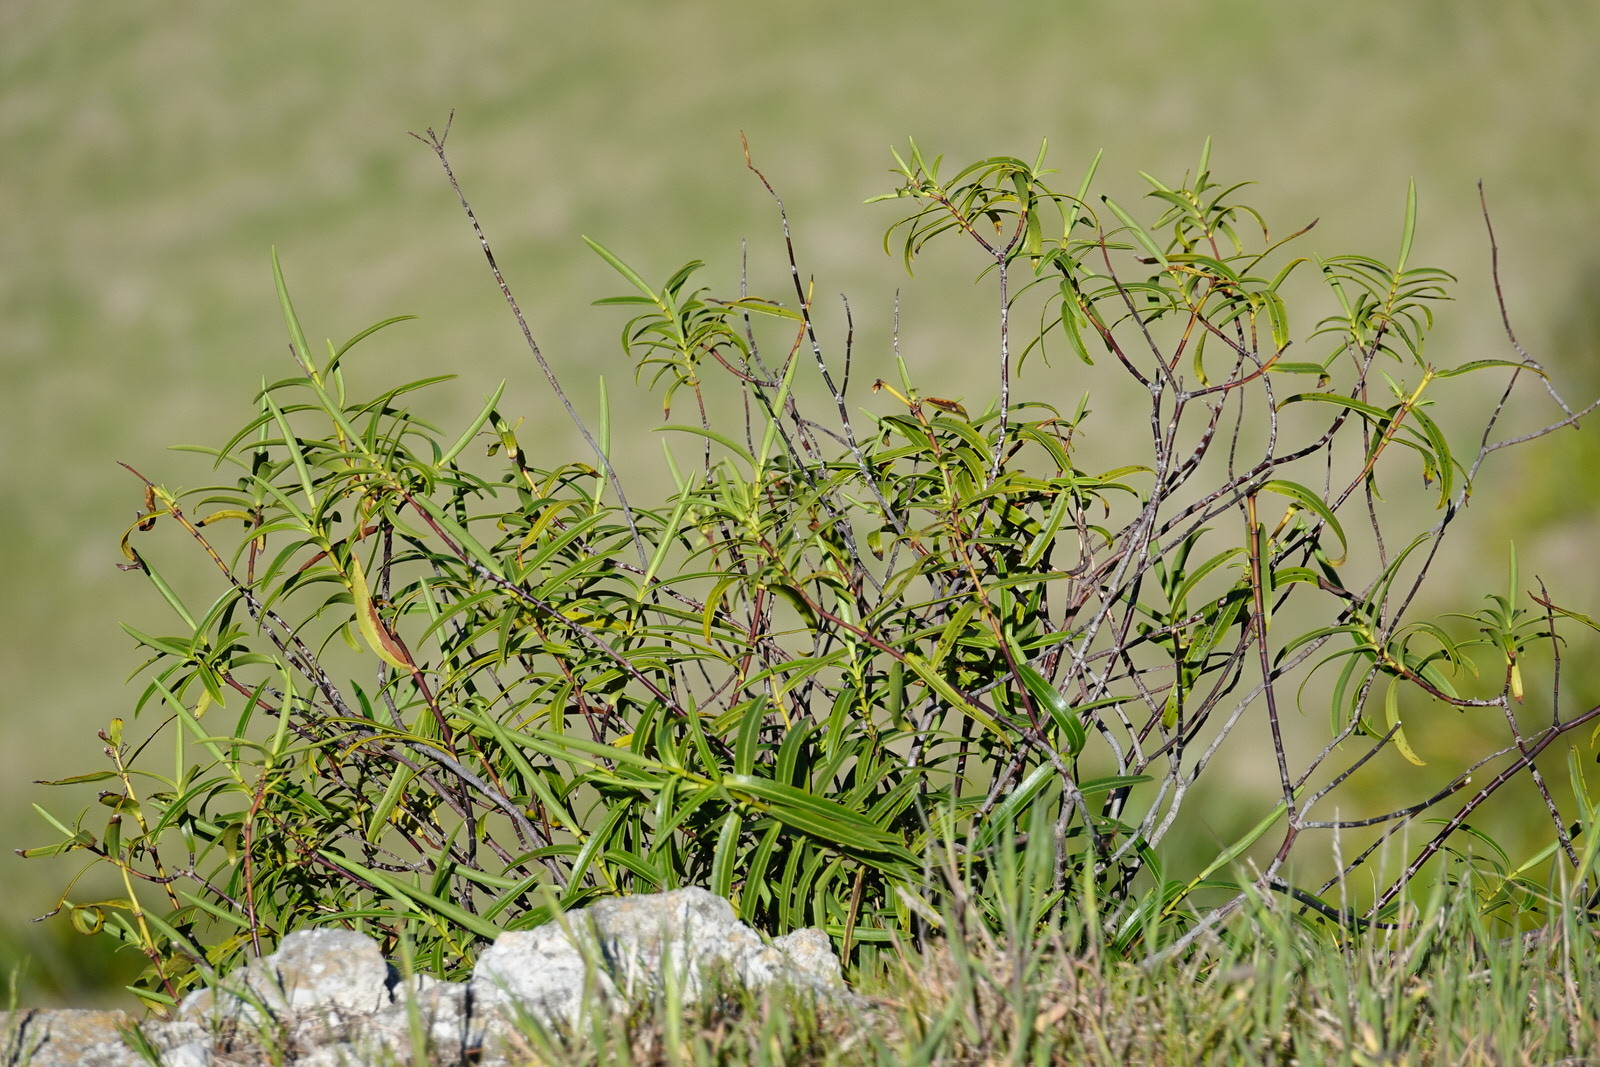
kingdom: Plantae
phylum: Tracheophyta
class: Magnoliopsida
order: Lamiales
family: Plantaginaceae
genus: Veronica
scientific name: Veronica stenophylla
